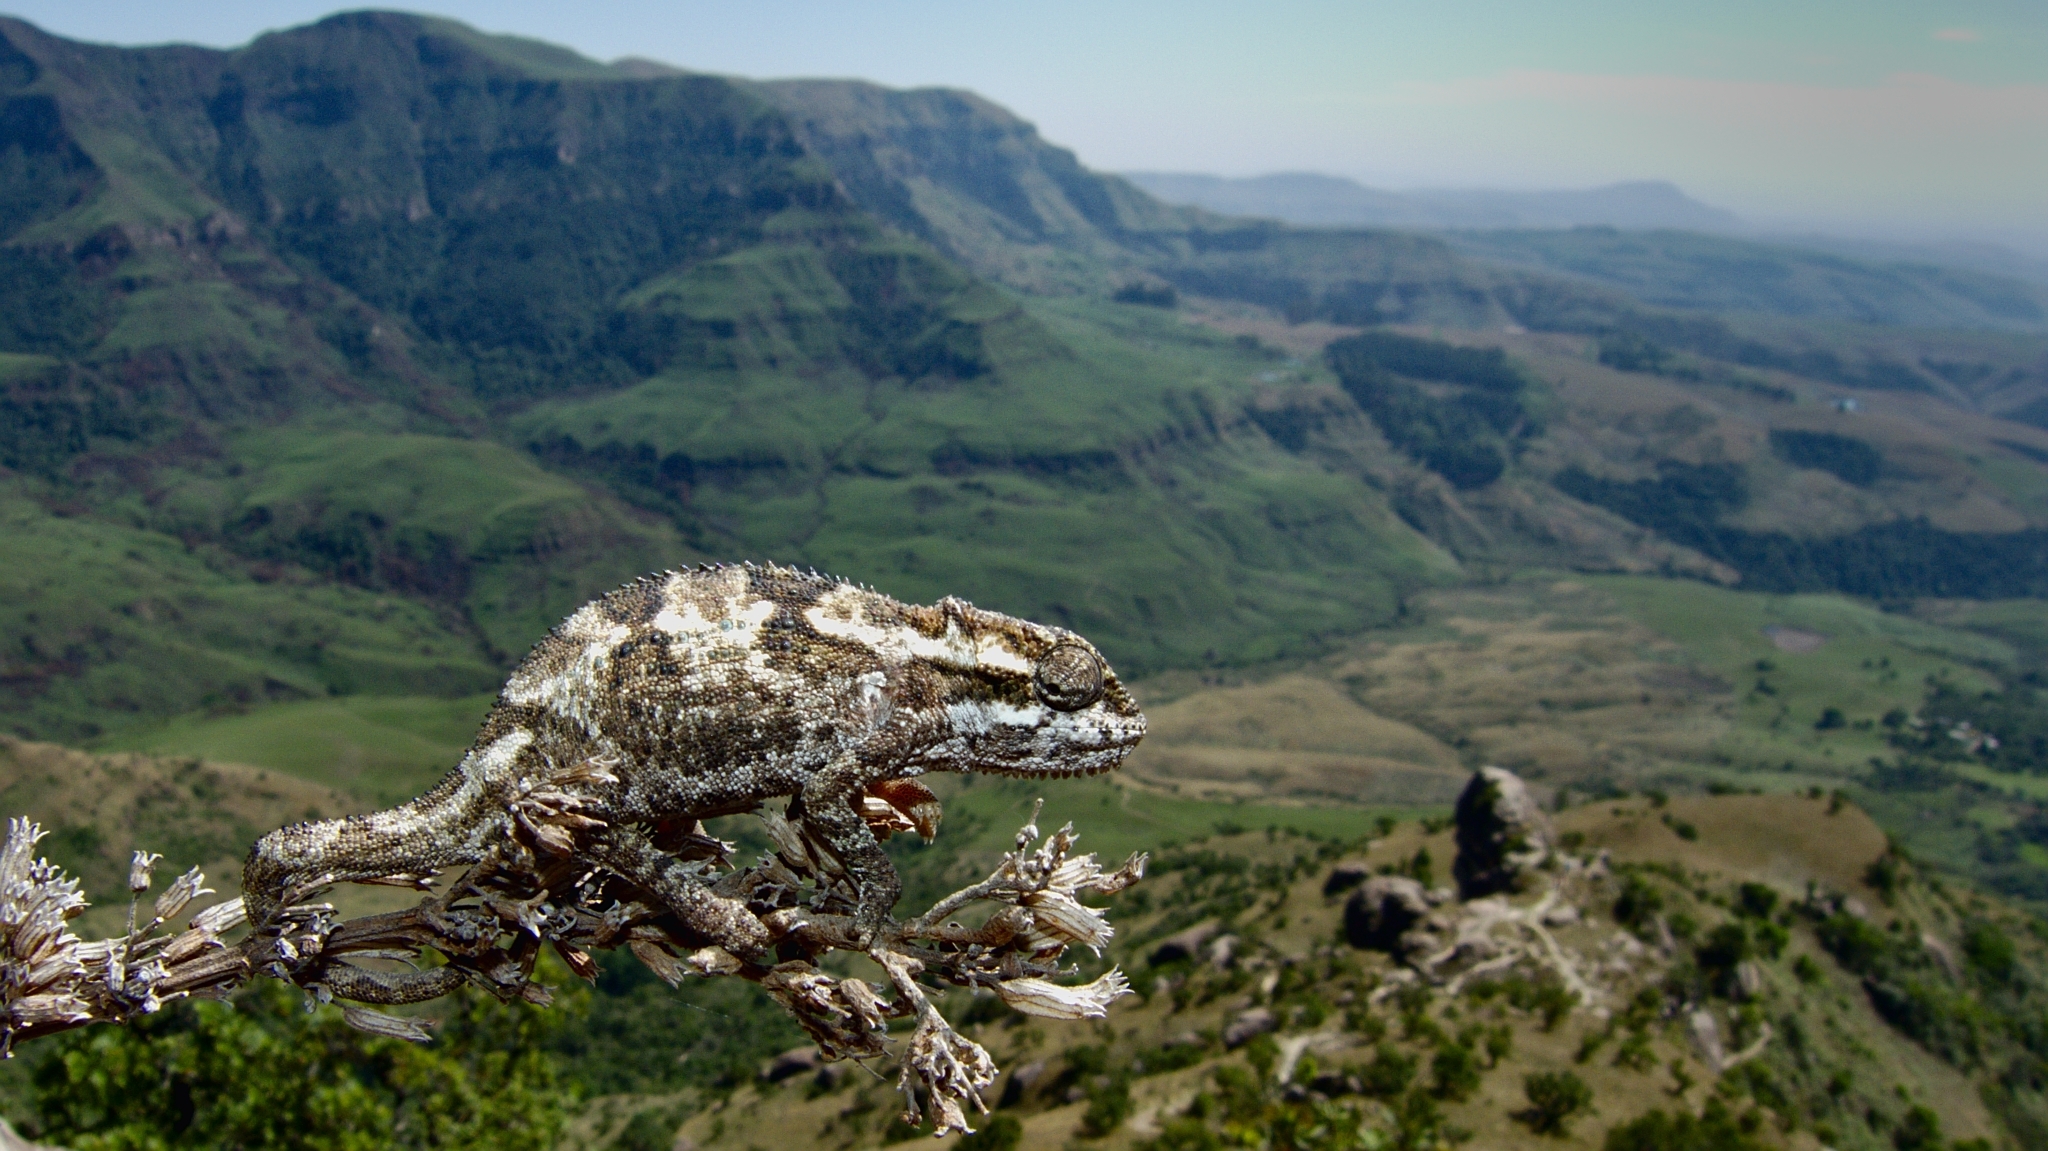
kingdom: Animalia
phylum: Chordata
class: Squamata
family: Chamaeleonidae
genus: Bradypodion
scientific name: Bradypodion dracomontanum
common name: Drakensberg dwarf chameleon
